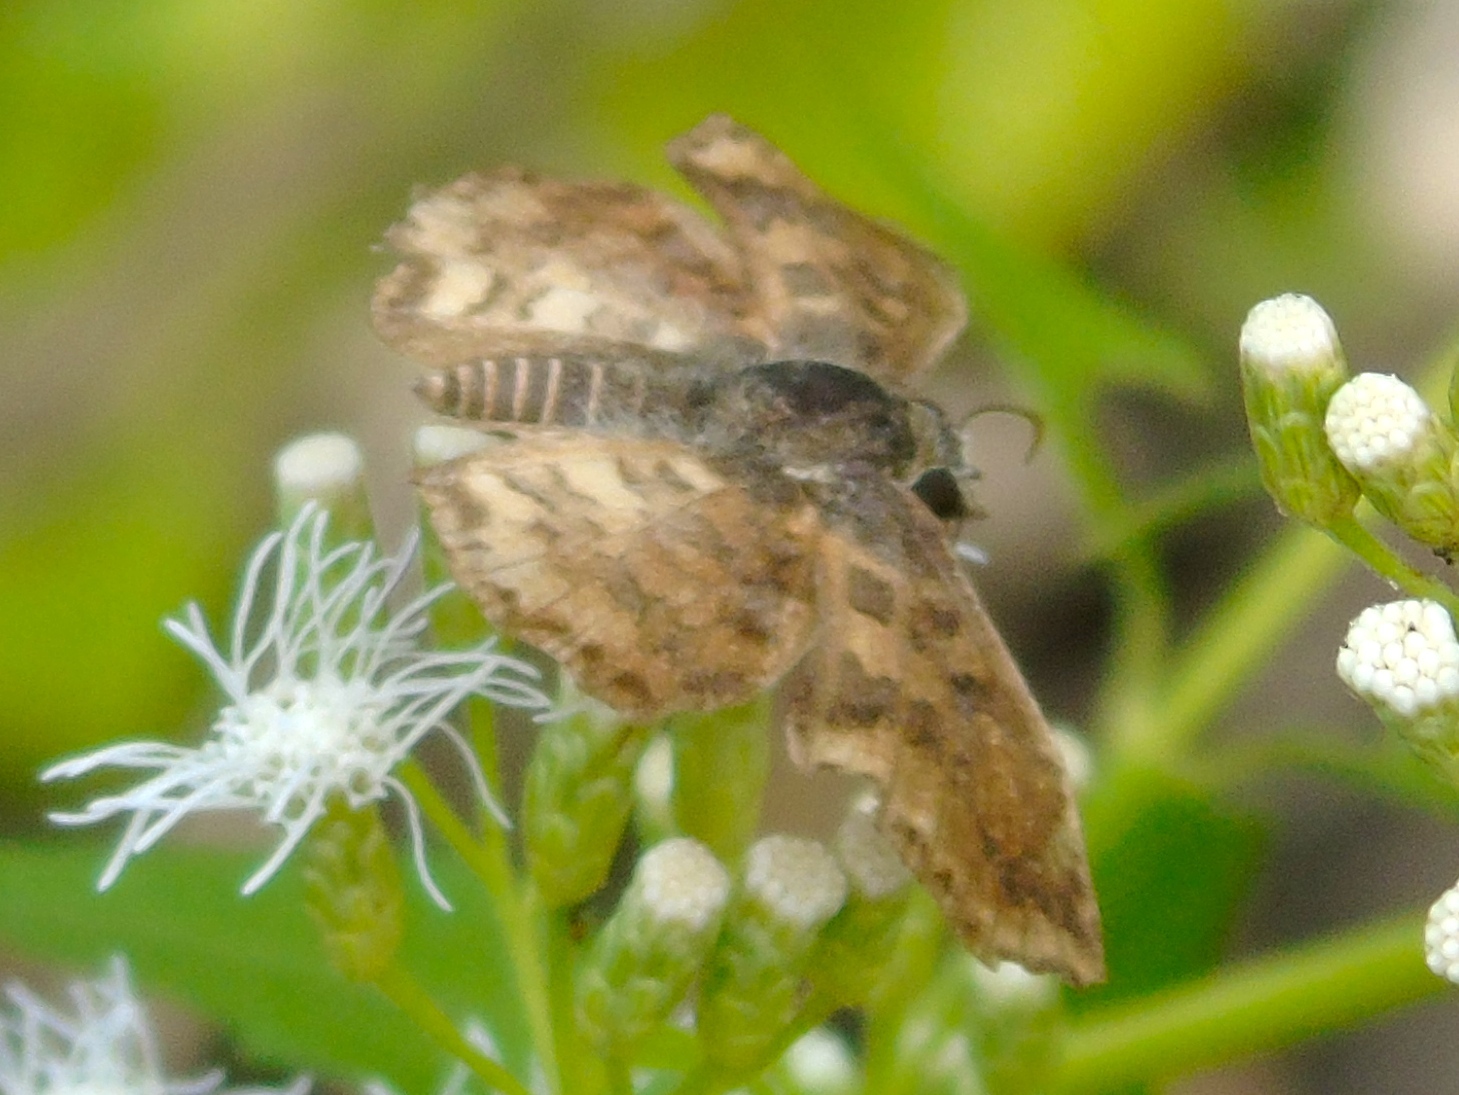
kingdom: Animalia
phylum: Arthropoda
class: Insecta
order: Lepidoptera
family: Hesperiidae
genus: Antigonus
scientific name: Antigonus erosus
